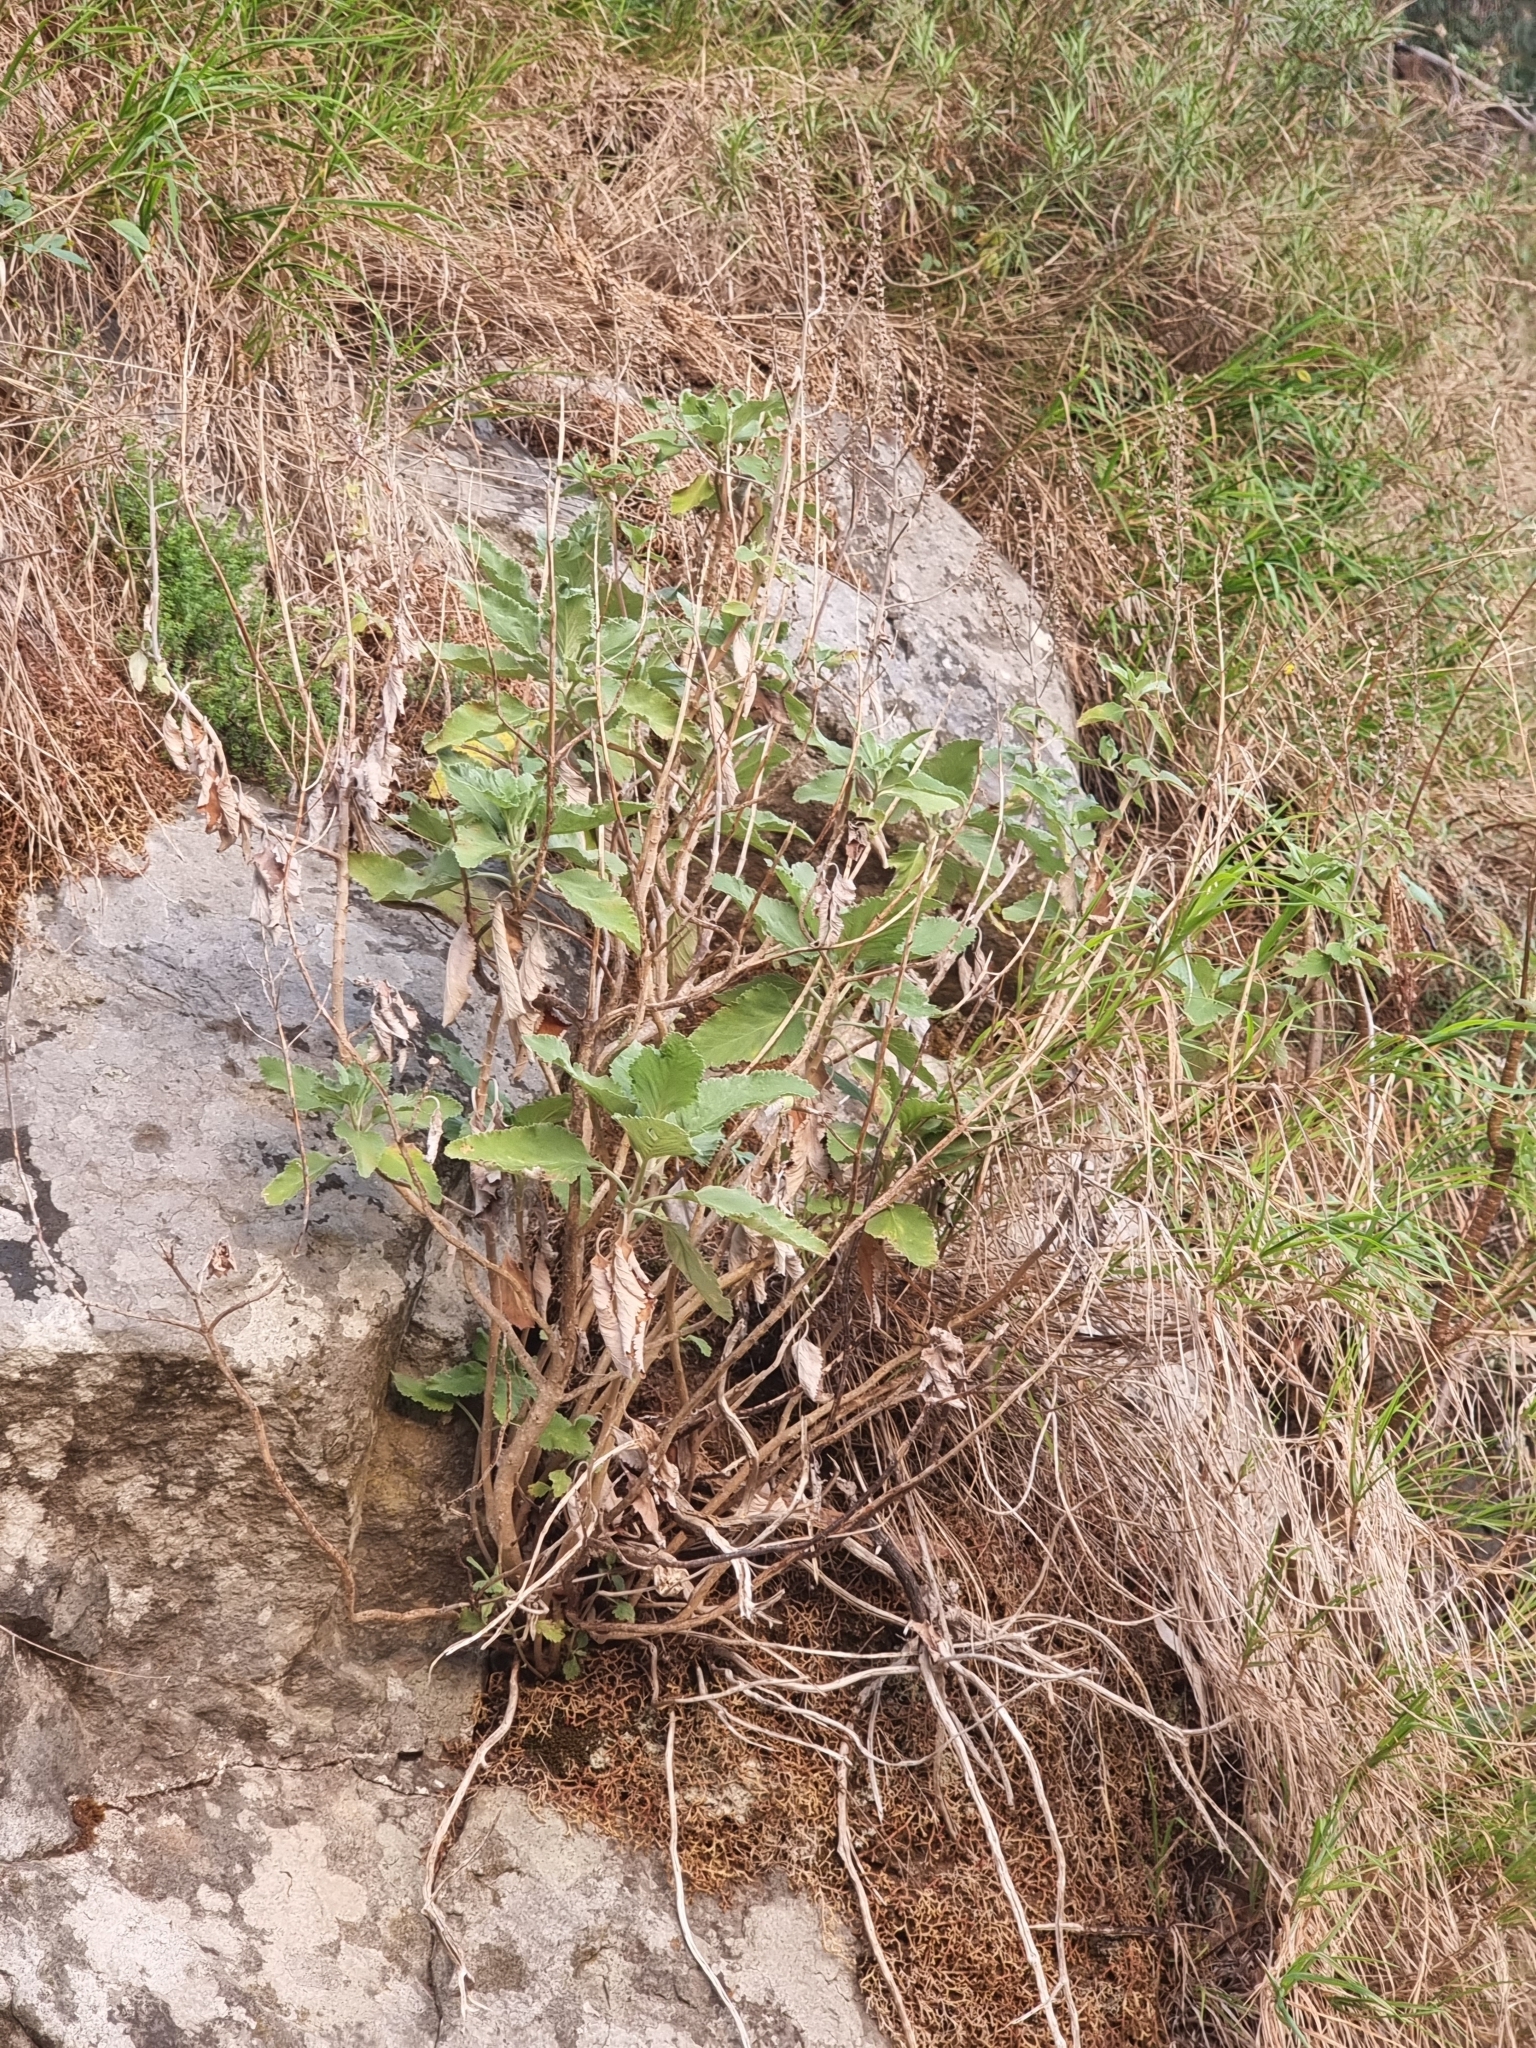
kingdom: Plantae
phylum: Tracheophyta
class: Magnoliopsida
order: Lamiales
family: Lamiaceae
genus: Teucrium
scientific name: Teucrium betonicum
